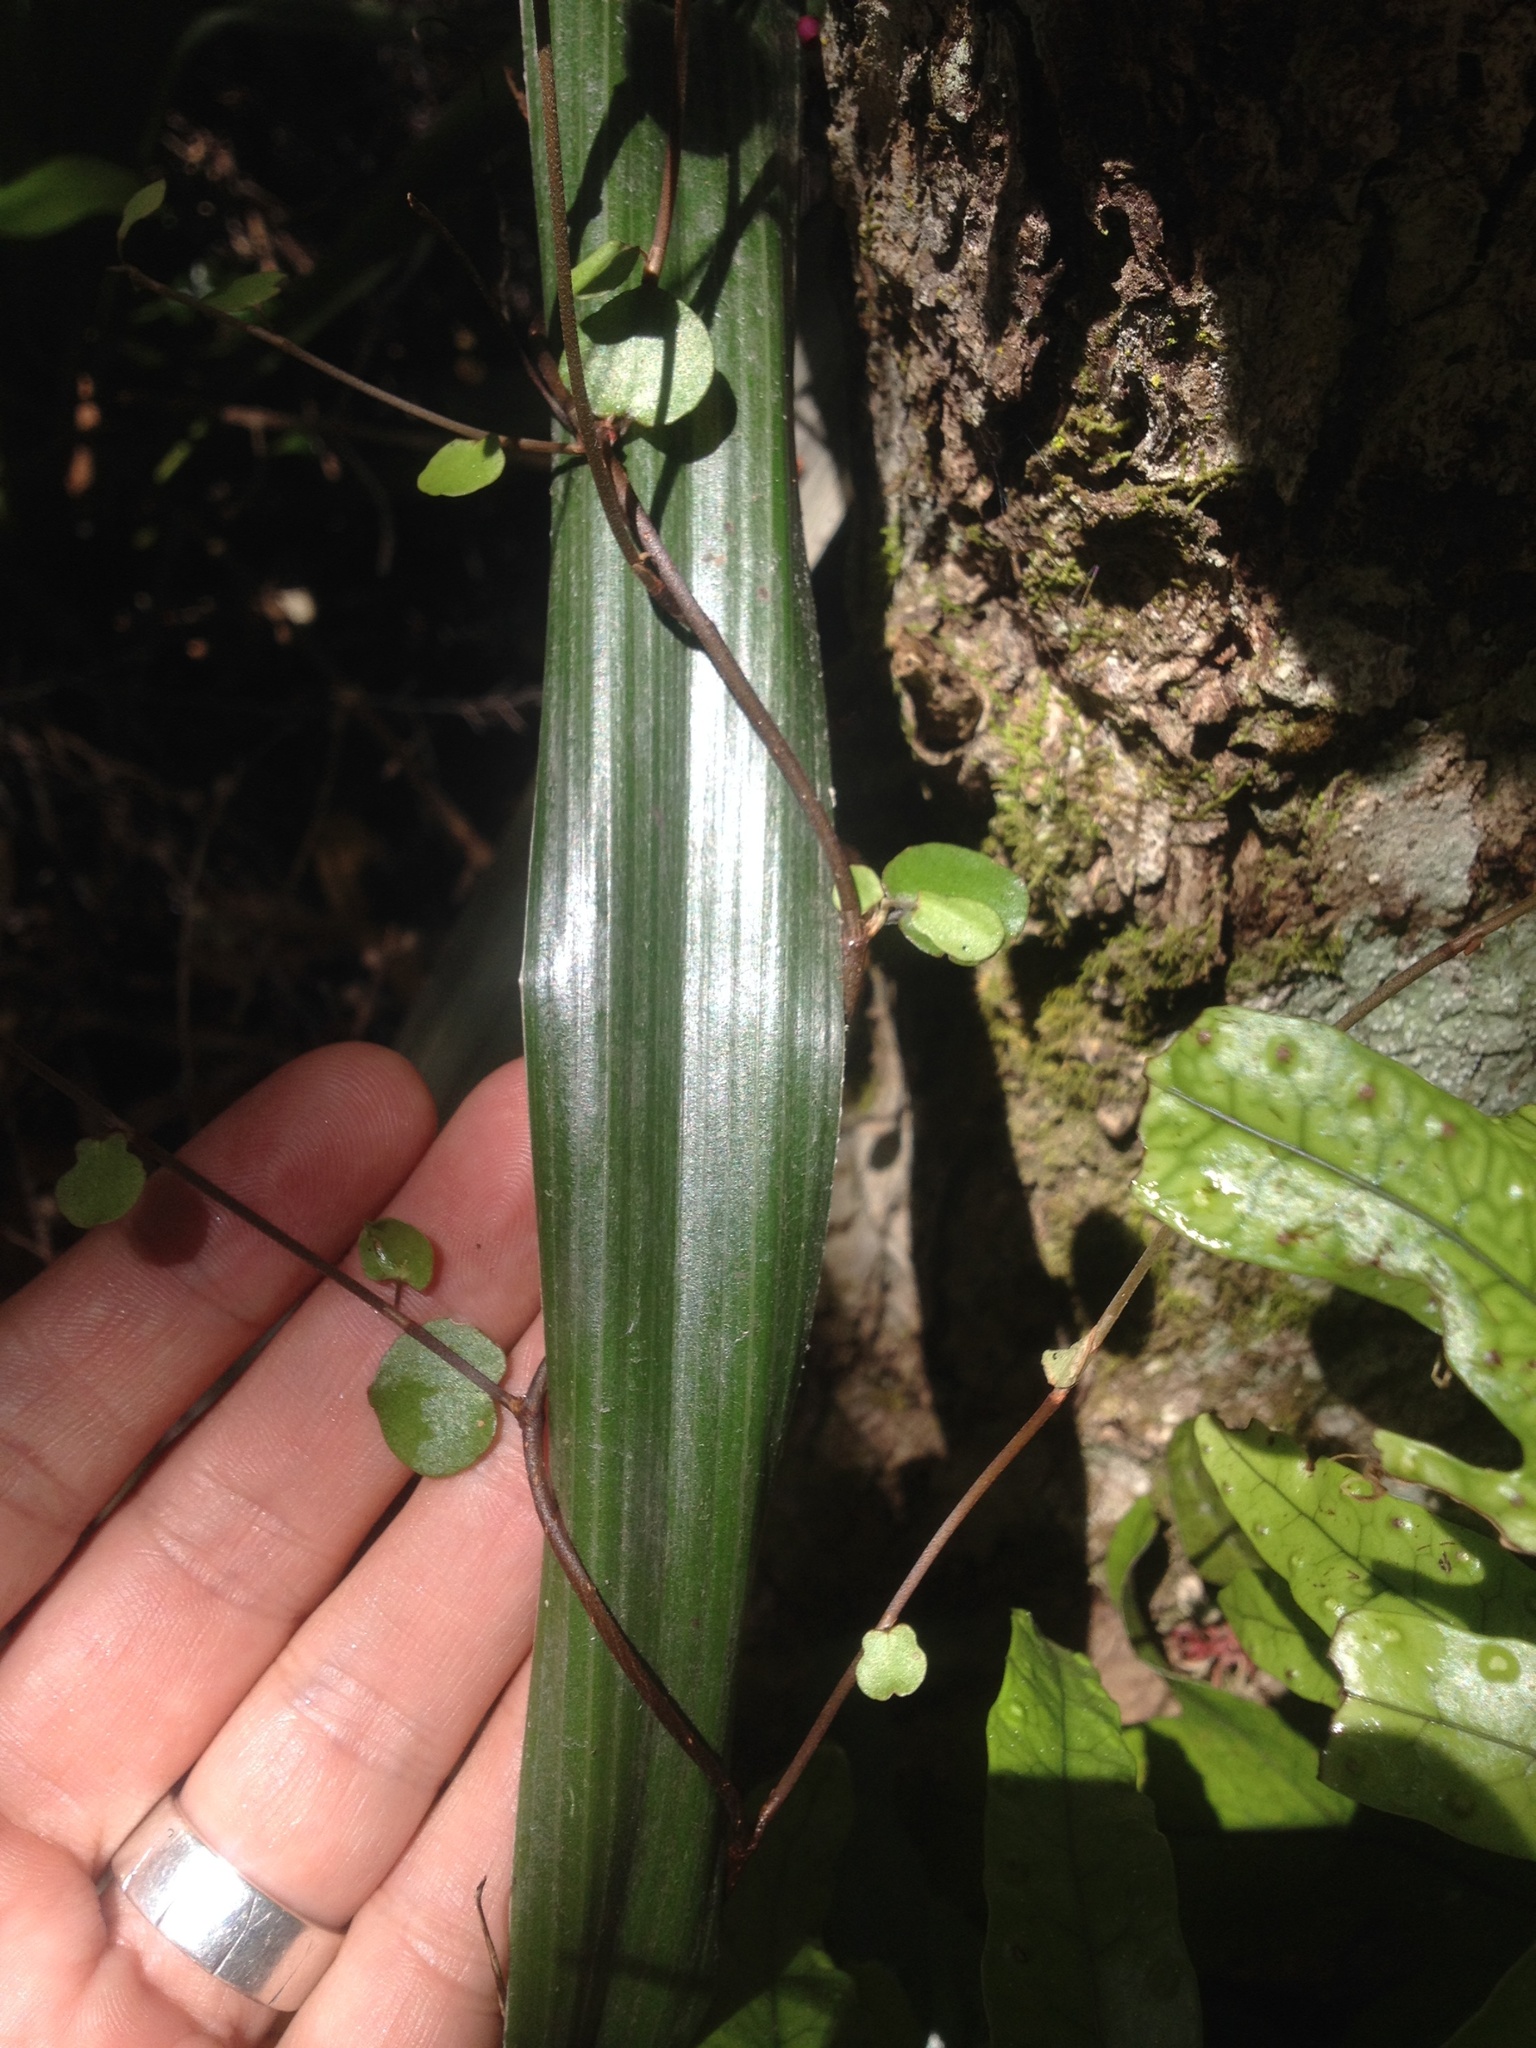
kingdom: Plantae
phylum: Tracheophyta
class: Magnoliopsida
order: Caryophyllales
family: Polygonaceae
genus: Muehlenbeckia
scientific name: Muehlenbeckia complexa
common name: Wireplant
